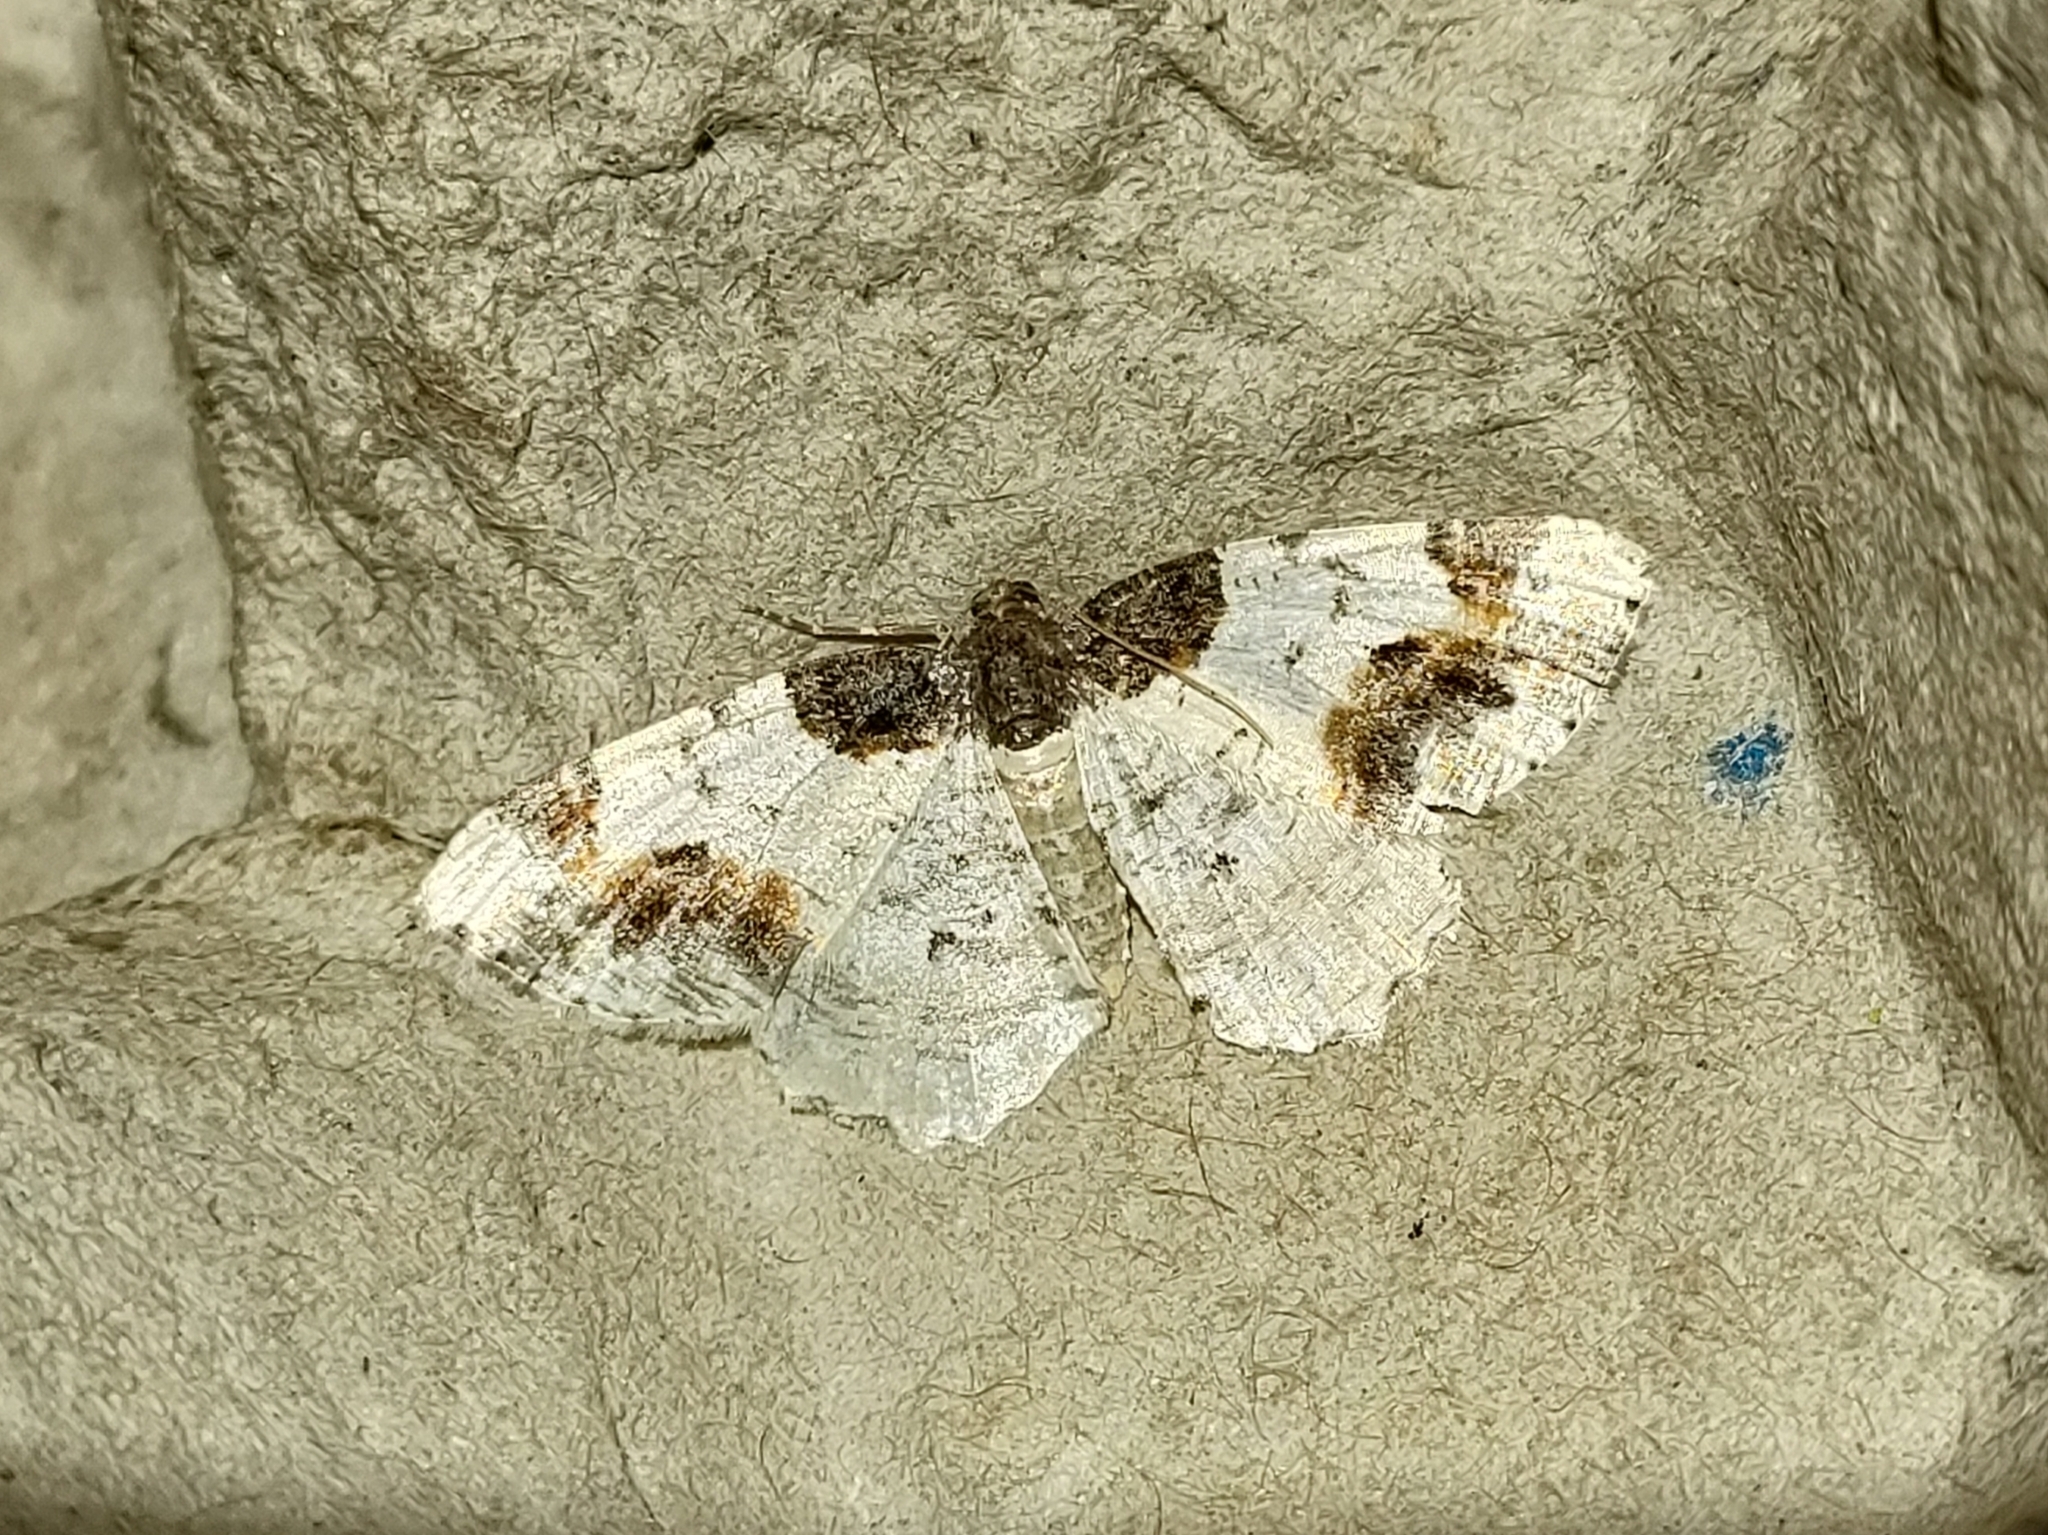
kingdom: Animalia
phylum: Arthropoda
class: Insecta
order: Lepidoptera
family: Geometridae
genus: Ligdia
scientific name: Ligdia adustata
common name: Scorched carpet
